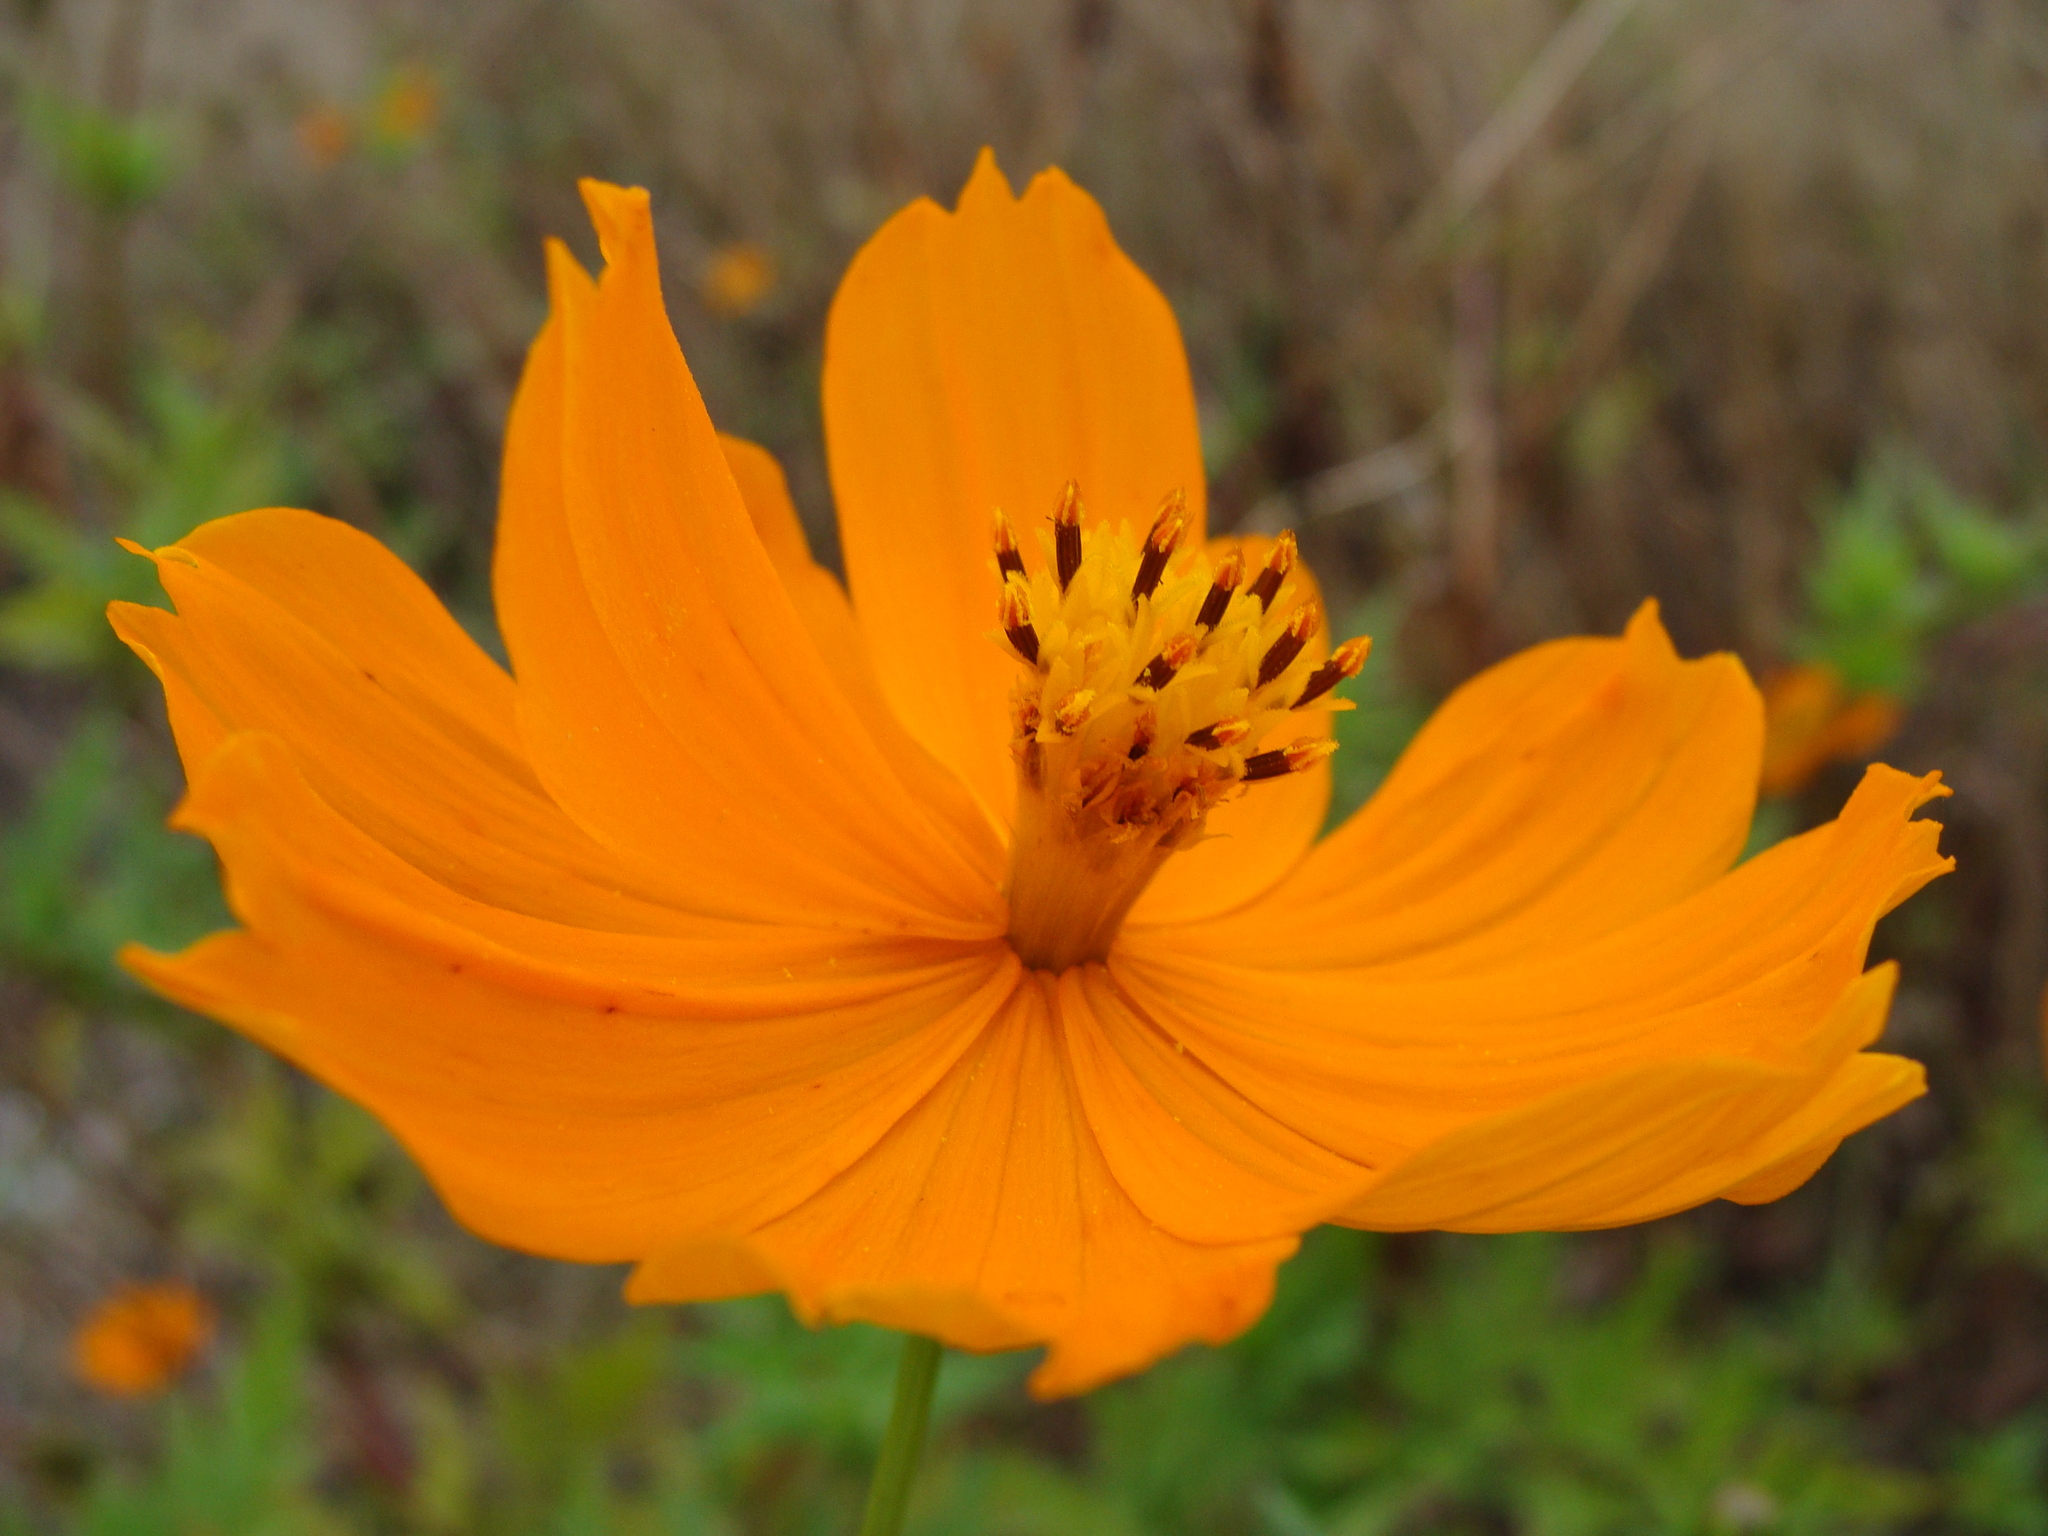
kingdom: Plantae
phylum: Tracheophyta
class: Magnoliopsida
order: Asterales
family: Asteraceae
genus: Cosmos
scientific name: Cosmos sulphureus
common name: Sulphur cosmos
